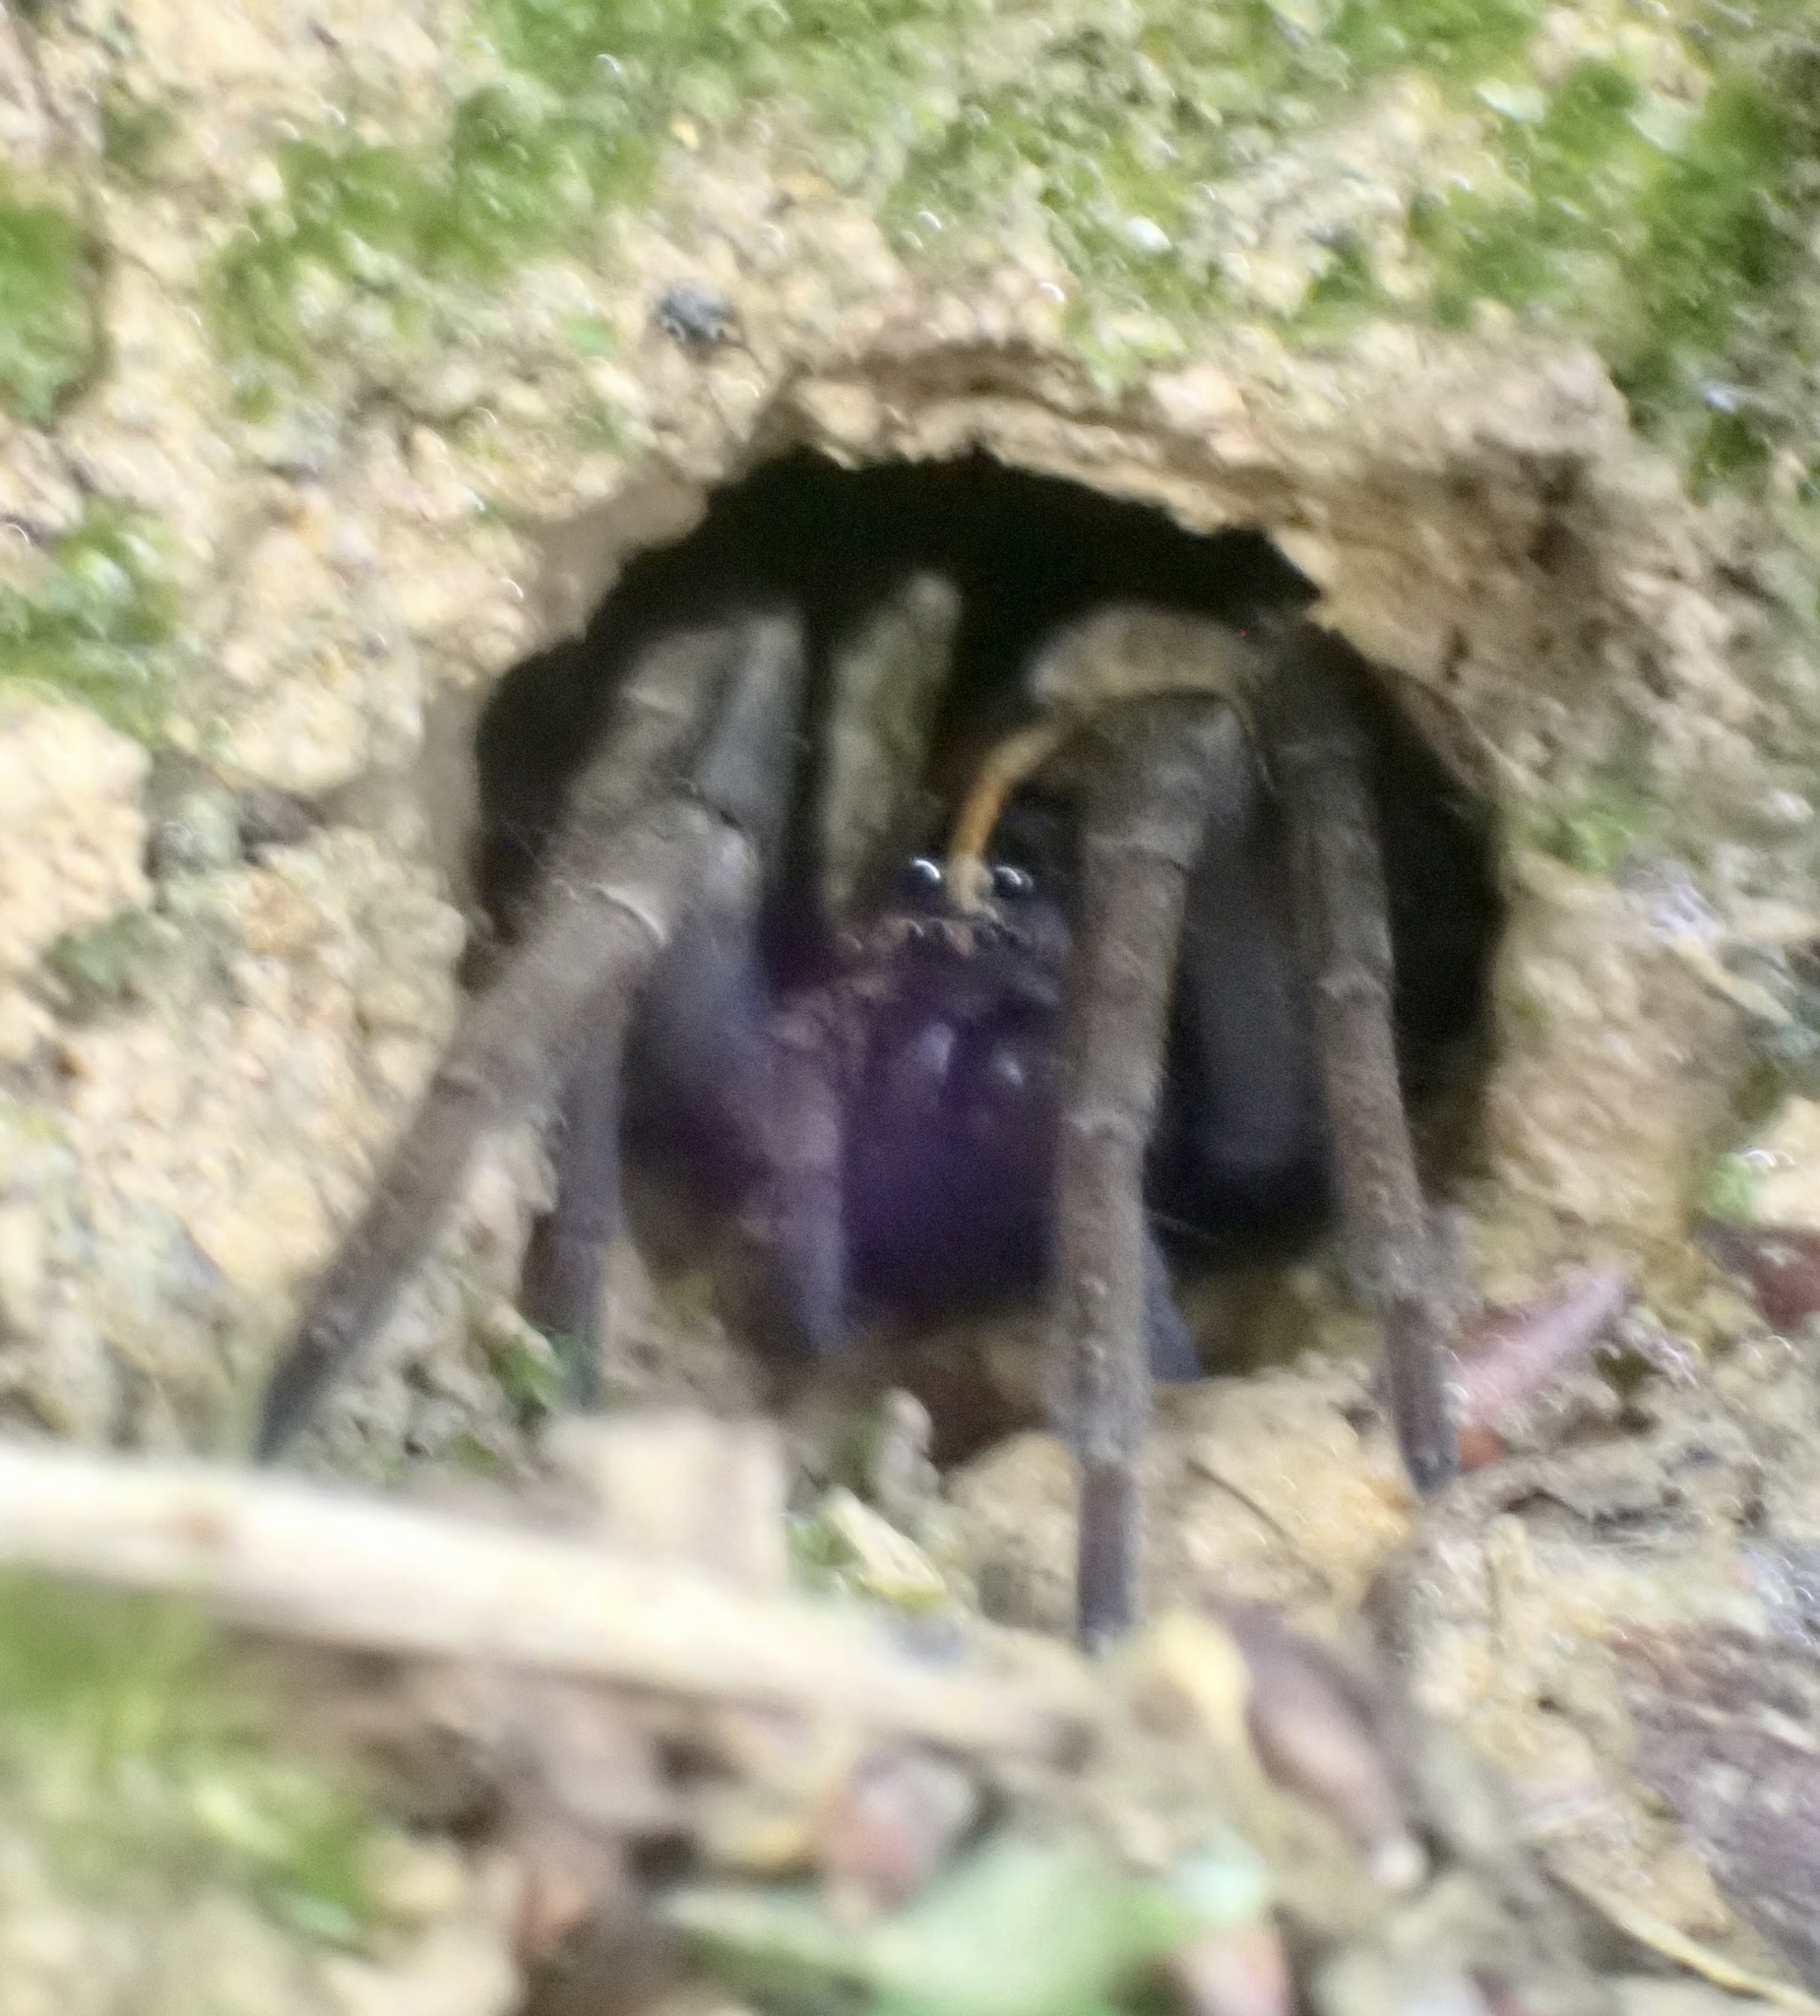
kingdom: Animalia
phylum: Arthropoda
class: Arachnida
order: Araneae
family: Lycosidae
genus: Tigrosa
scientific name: Tigrosa georgicola
